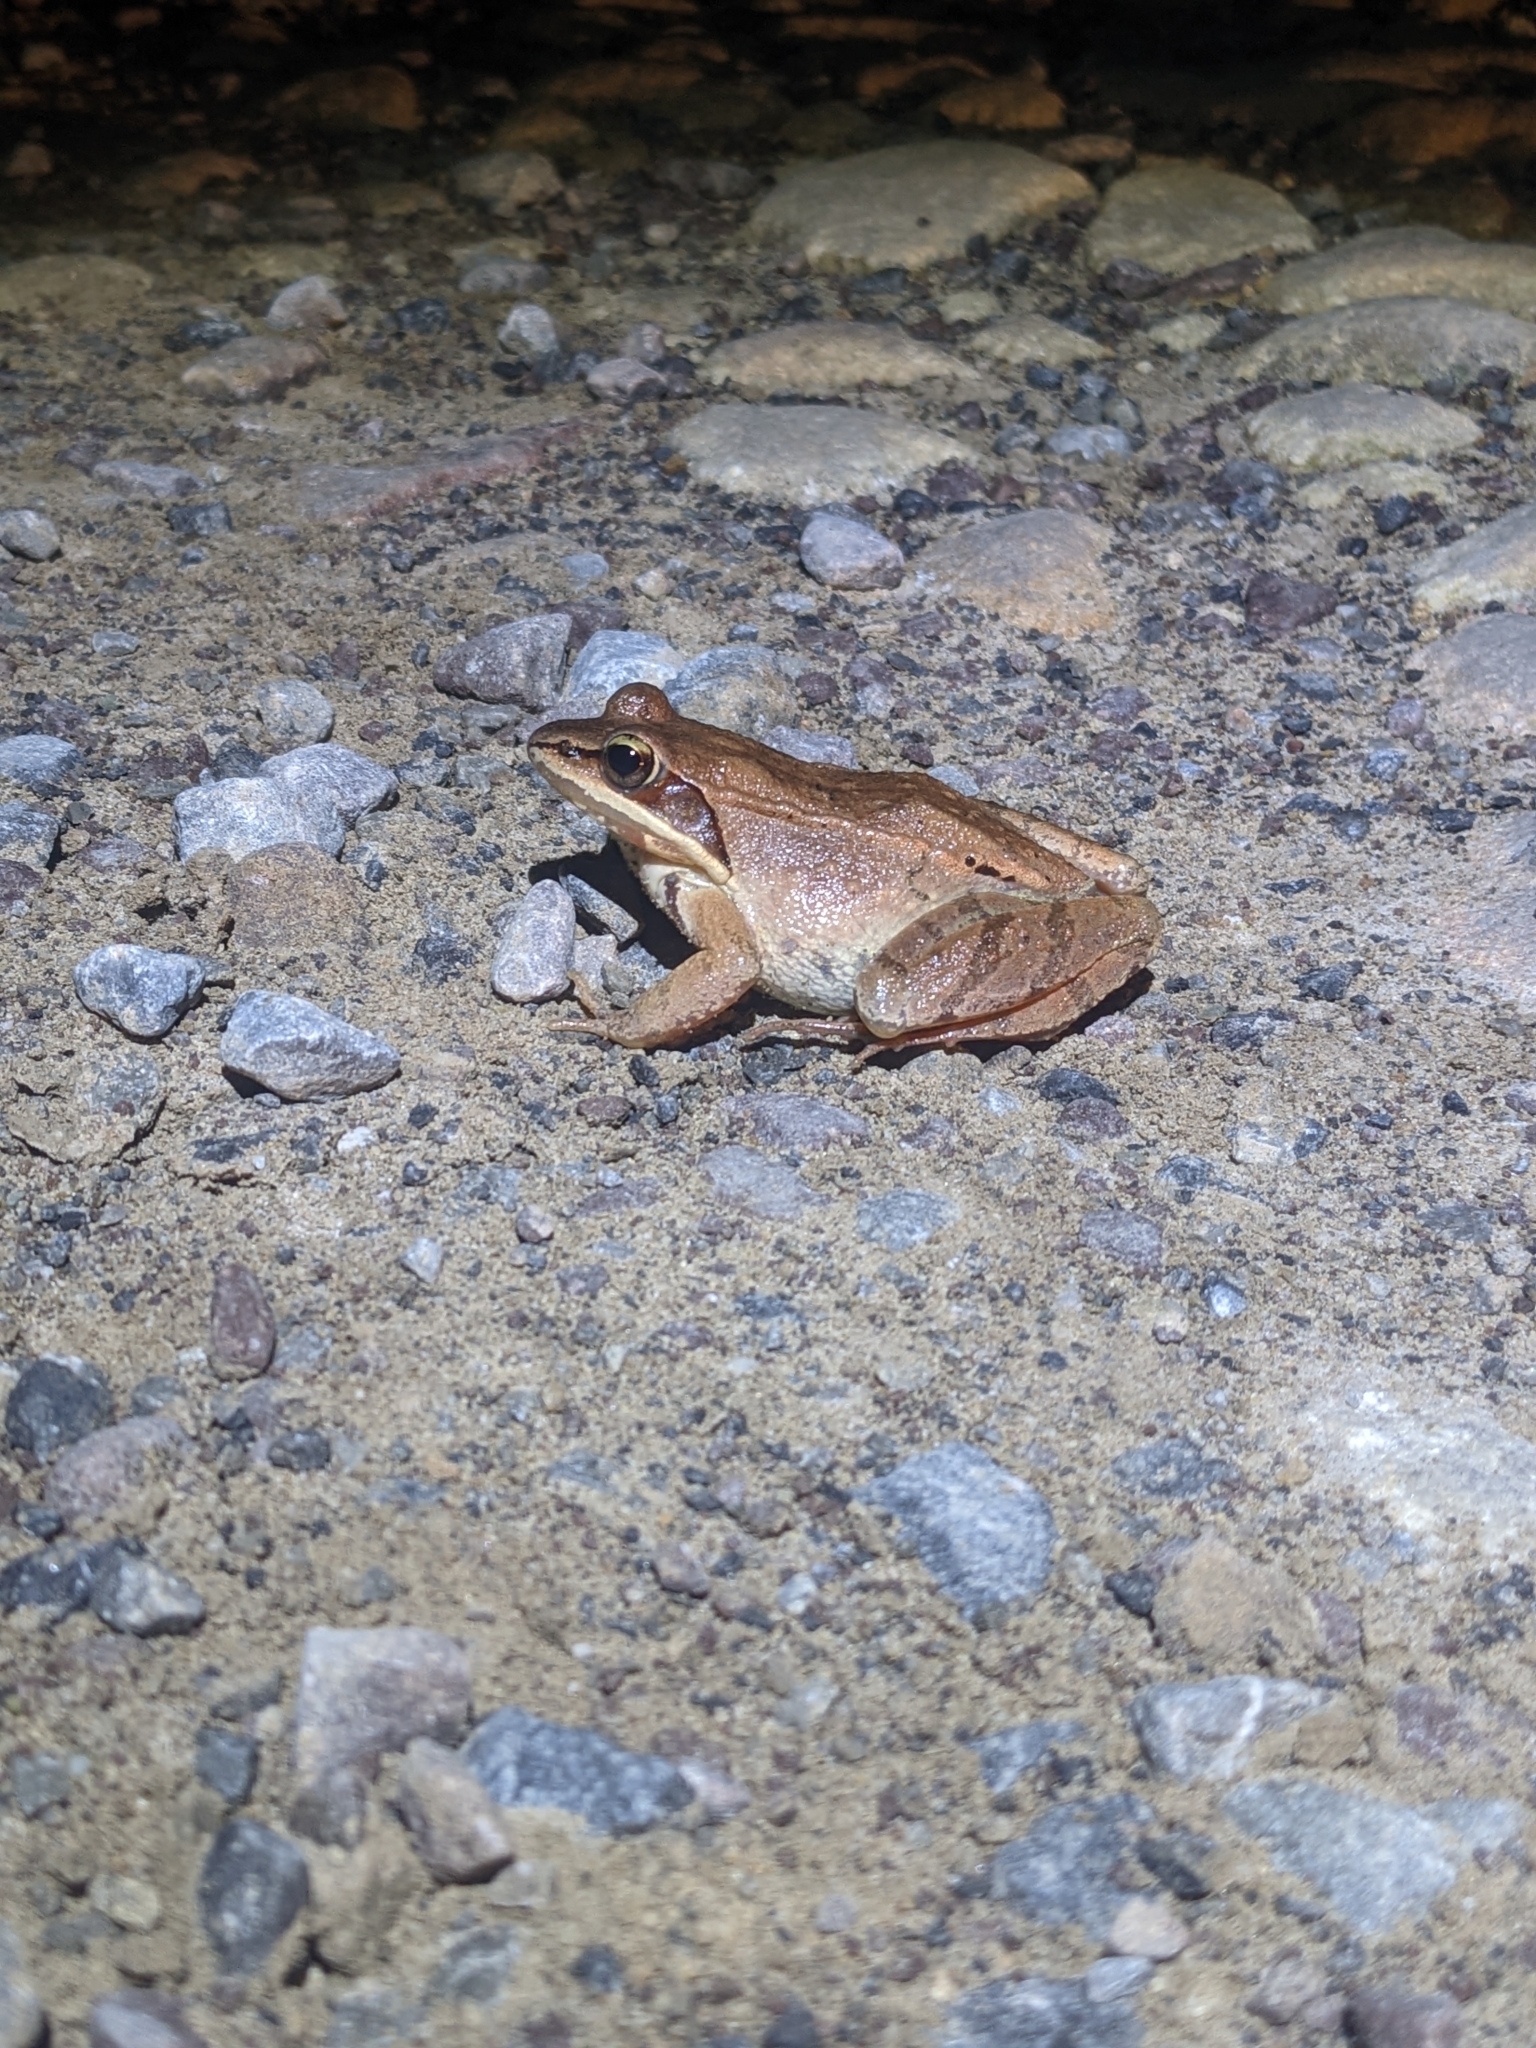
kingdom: Animalia
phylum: Chordata
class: Amphibia
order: Anura
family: Ranidae
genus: Lithobates
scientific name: Lithobates sylvaticus
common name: Wood frog
